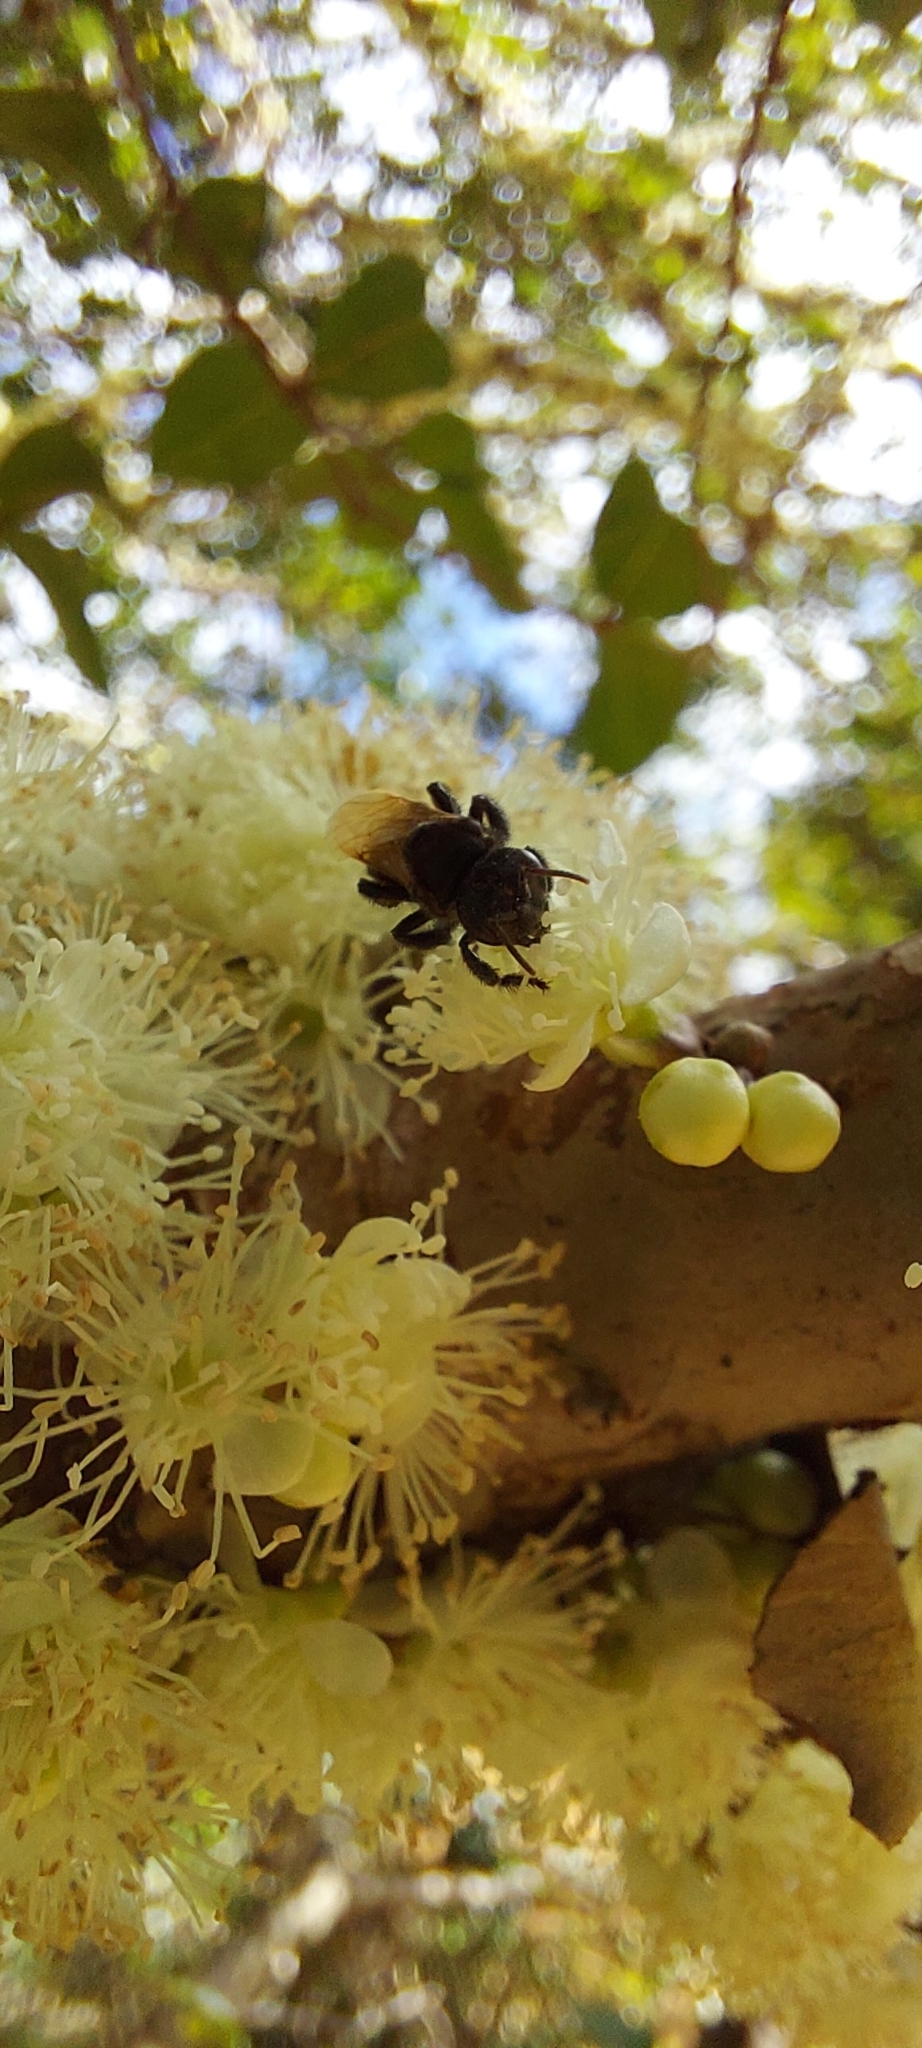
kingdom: Animalia
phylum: Arthropoda
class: Insecta
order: Hymenoptera
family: Apidae
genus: Trigona
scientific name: Trigona spinipes
